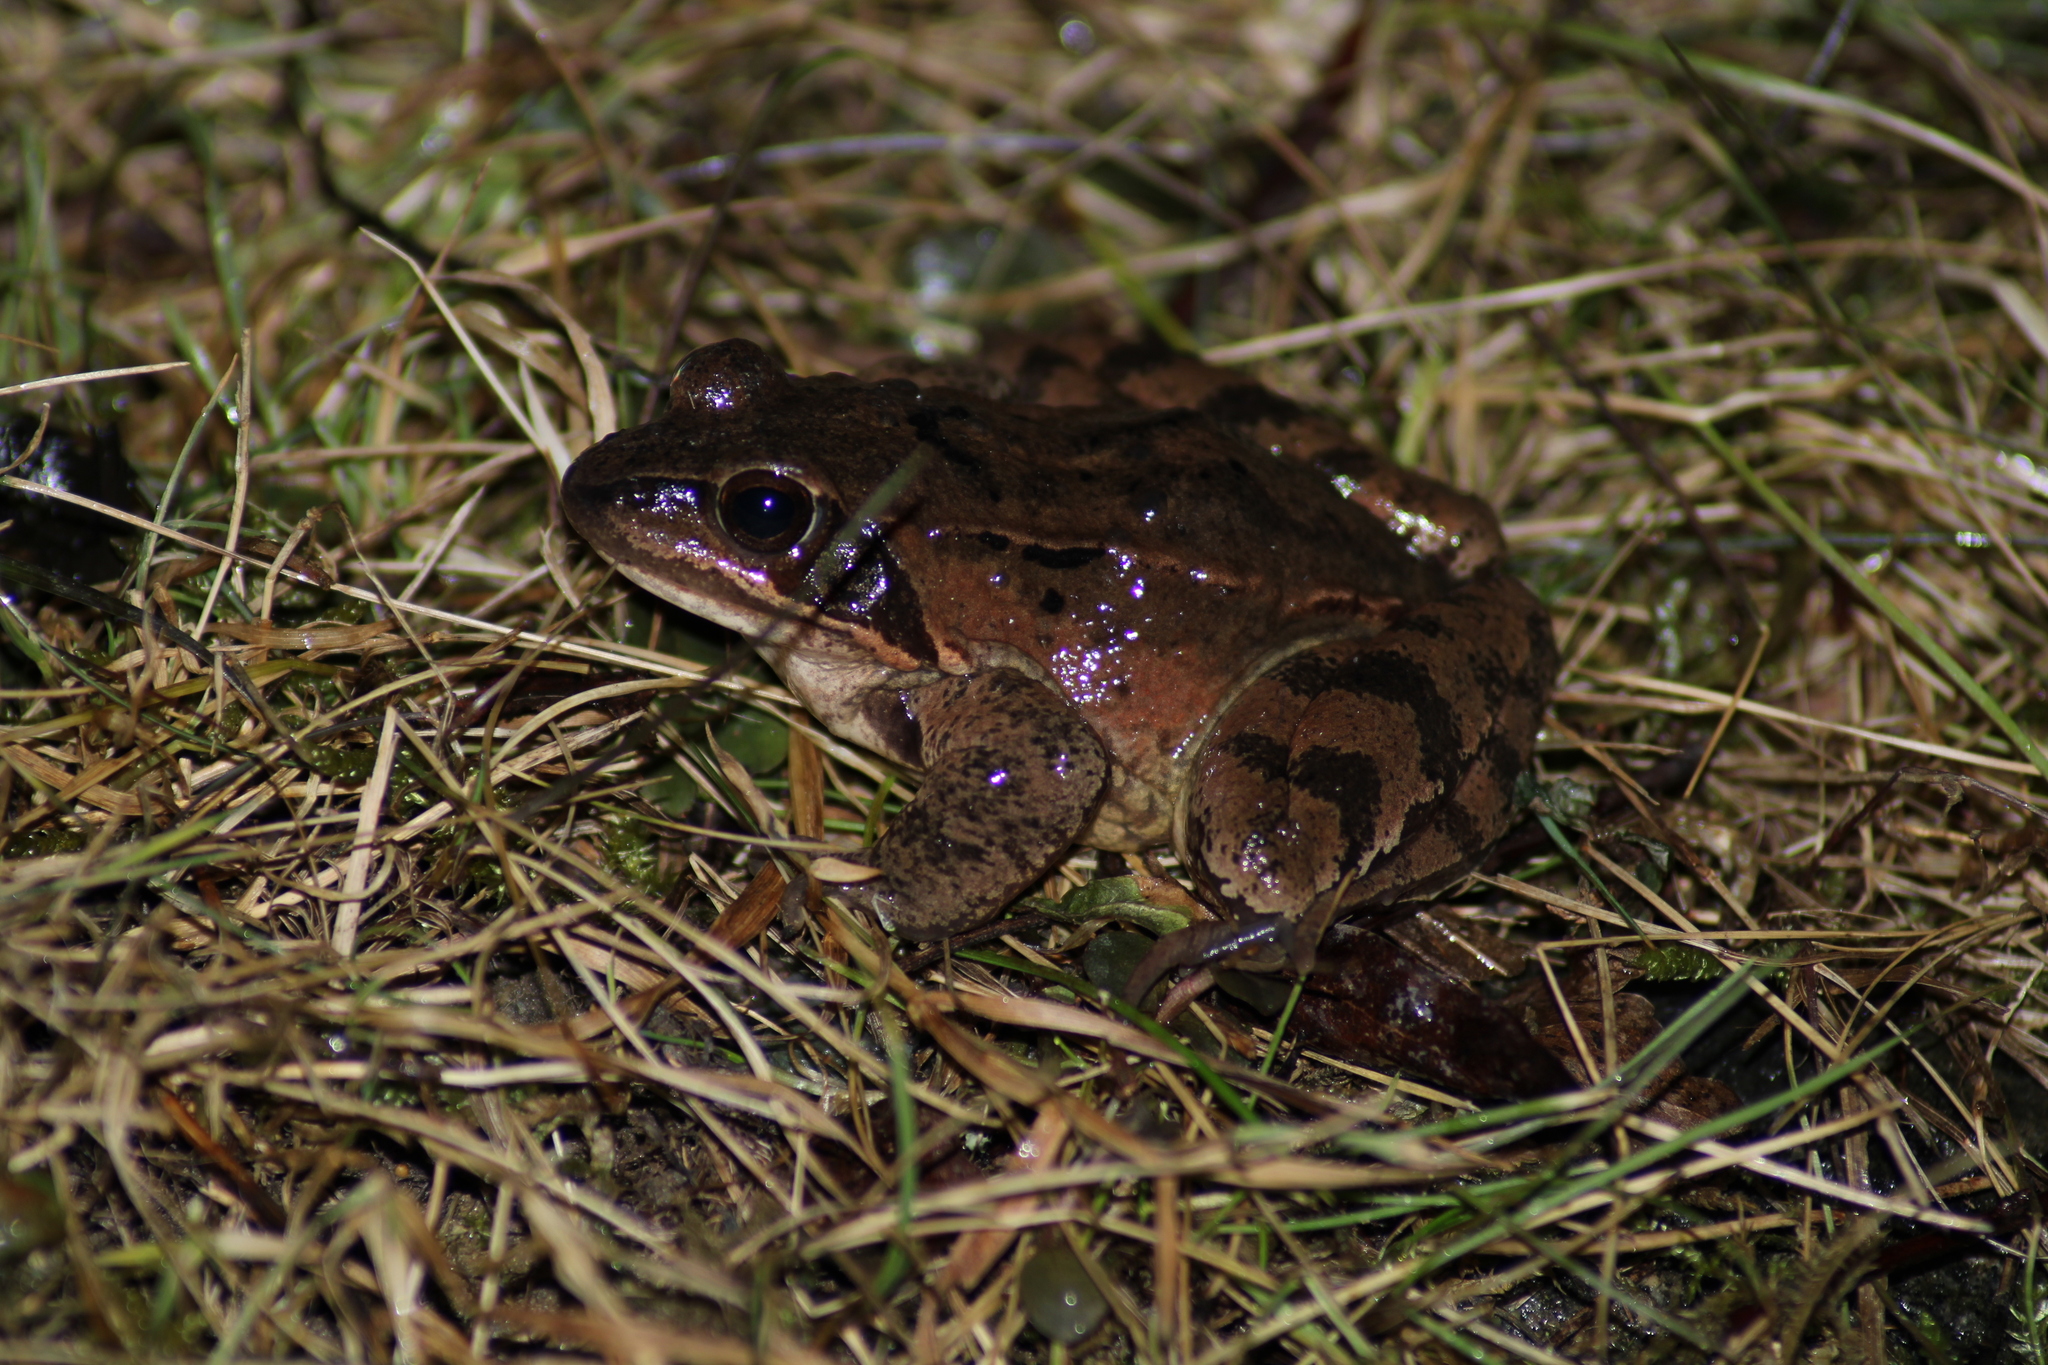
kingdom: Animalia
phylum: Chordata
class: Amphibia
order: Anura
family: Ranidae
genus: Rana
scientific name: Rana dalmatina
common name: Agile frog
